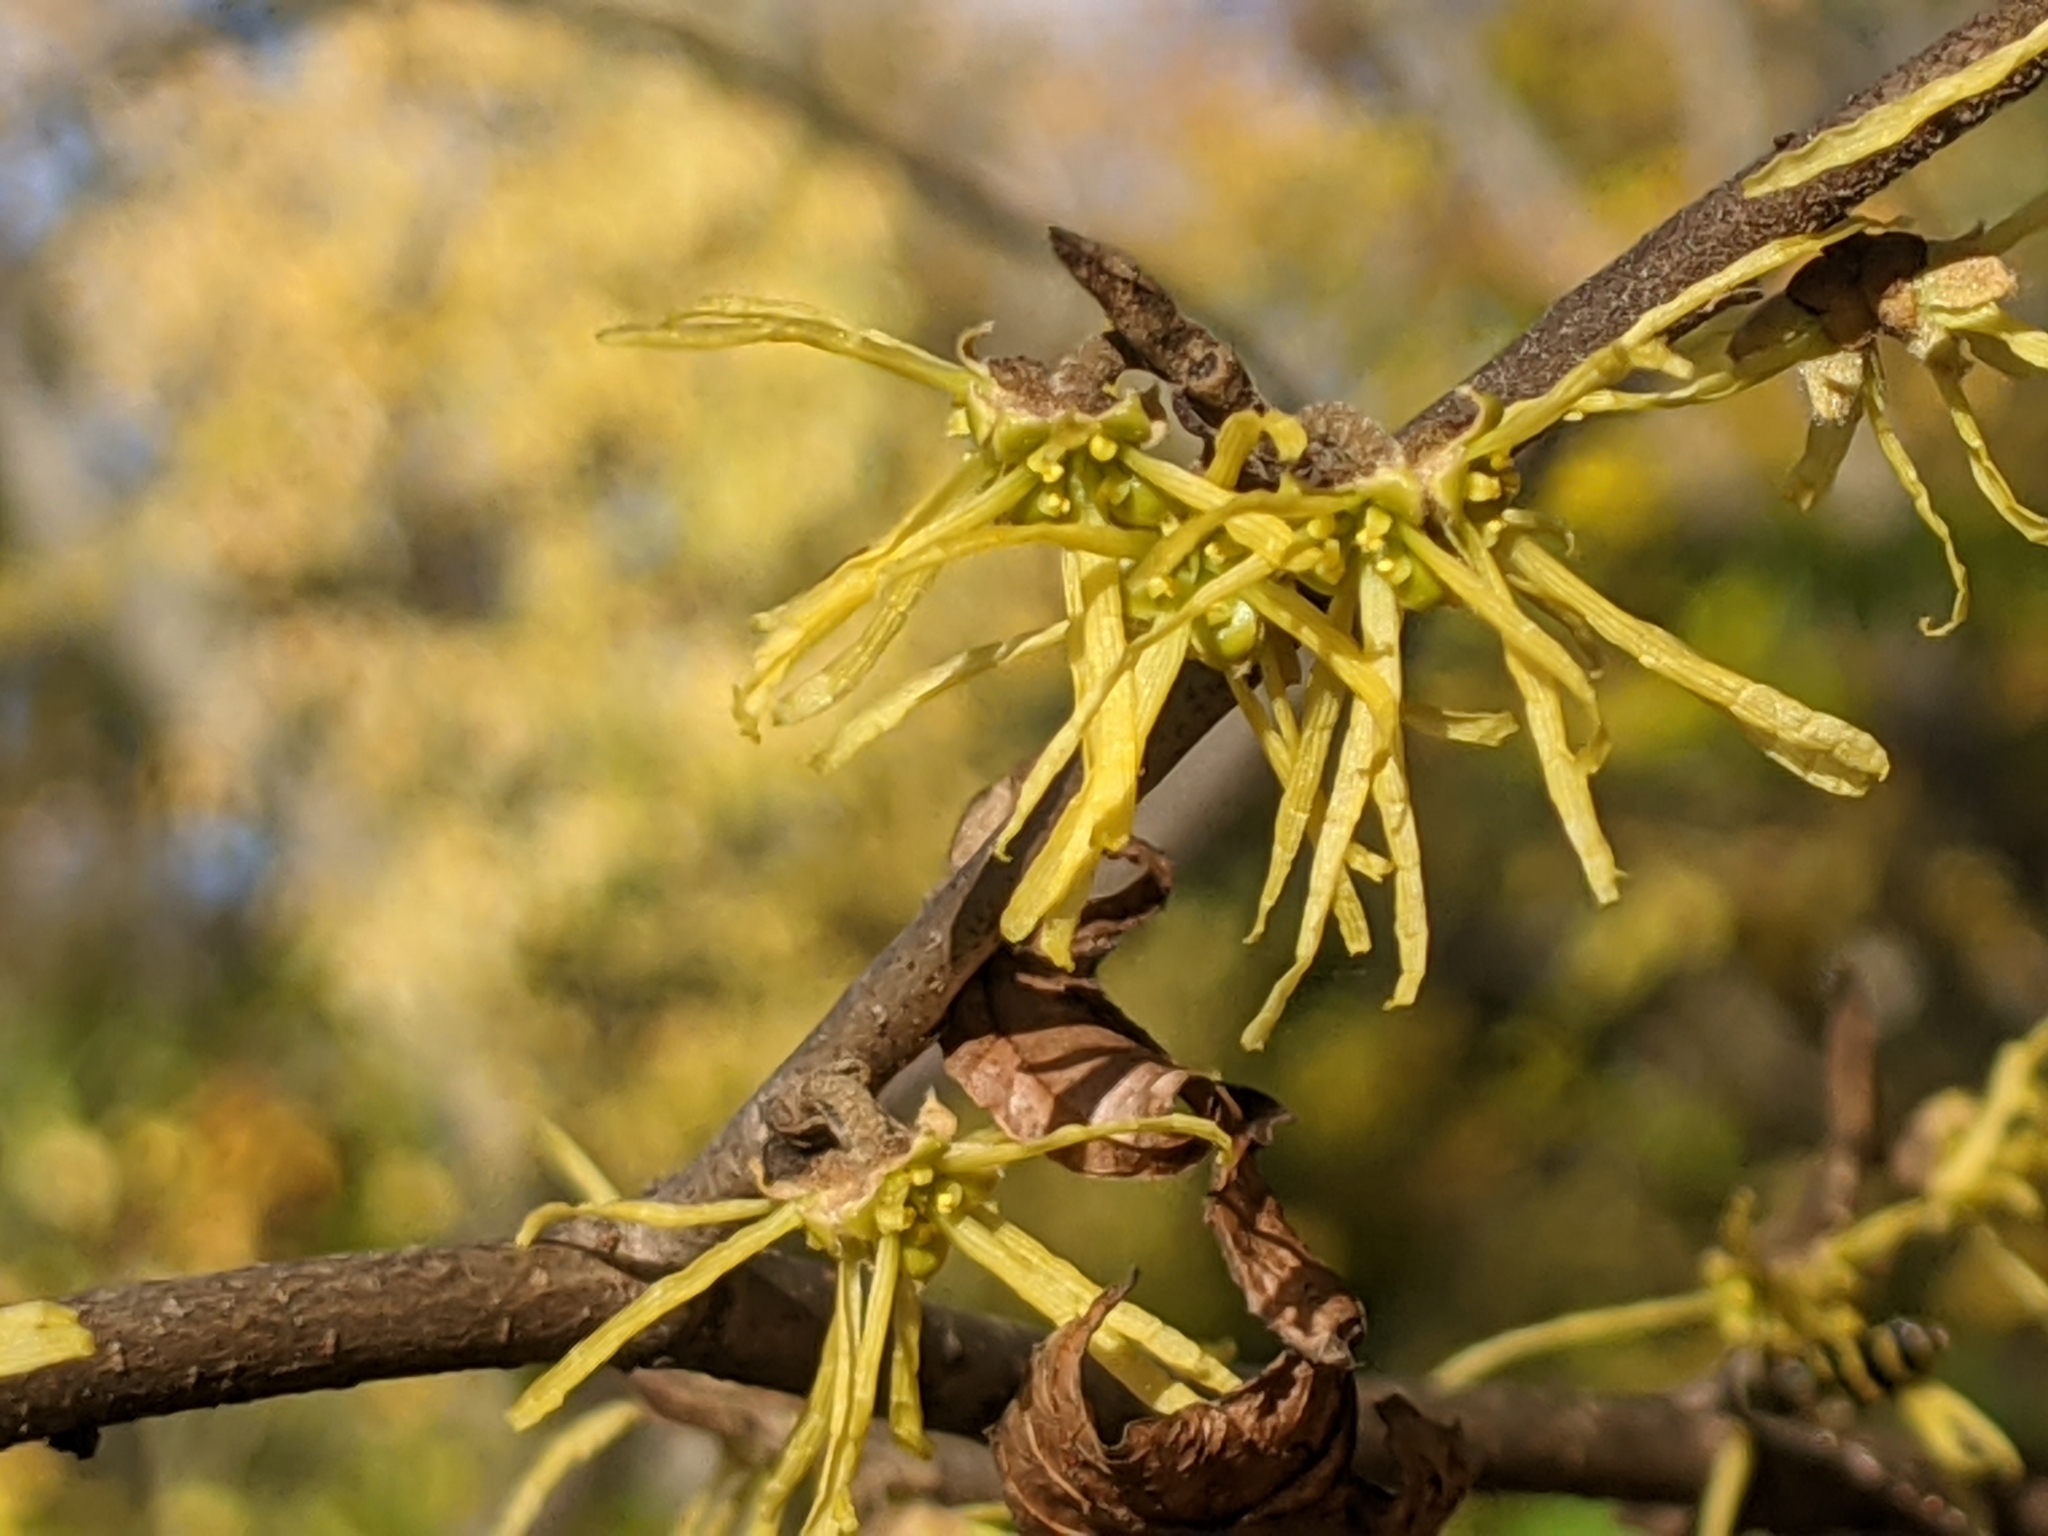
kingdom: Plantae
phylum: Tracheophyta
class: Magnoliopsida
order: Saxifragales
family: Hamamelidaceae
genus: Hamamelis
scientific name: Hamamelis virginiana
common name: Witch-hazel
